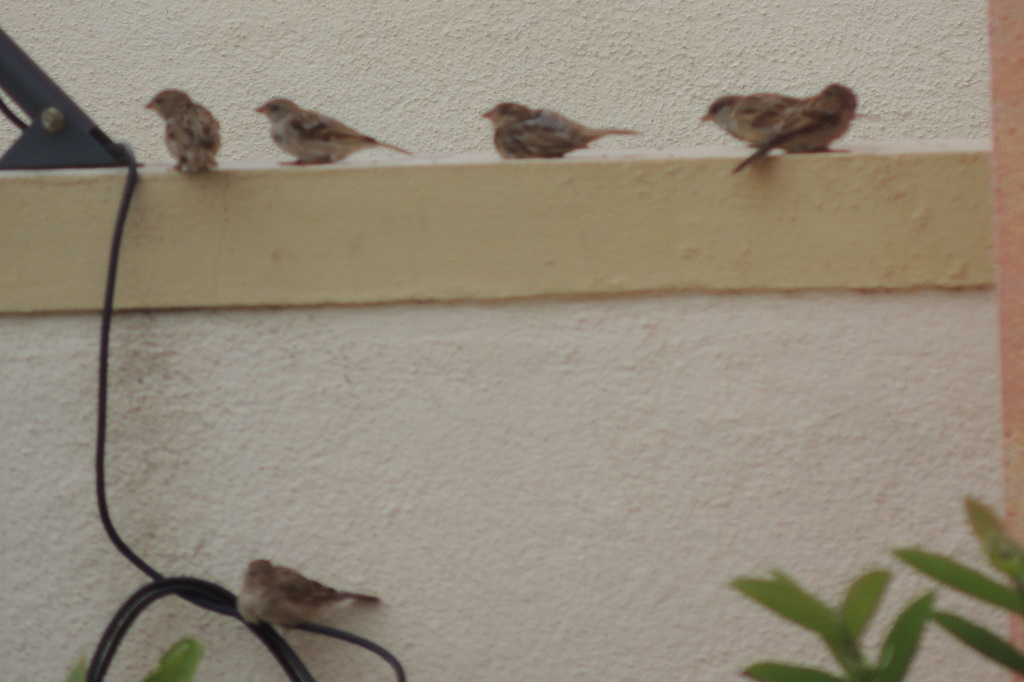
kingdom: Animalia
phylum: Chordata
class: Aves
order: Passeriformes
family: Passeridae
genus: Passer
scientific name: Passer domesticus
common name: House sparrow
